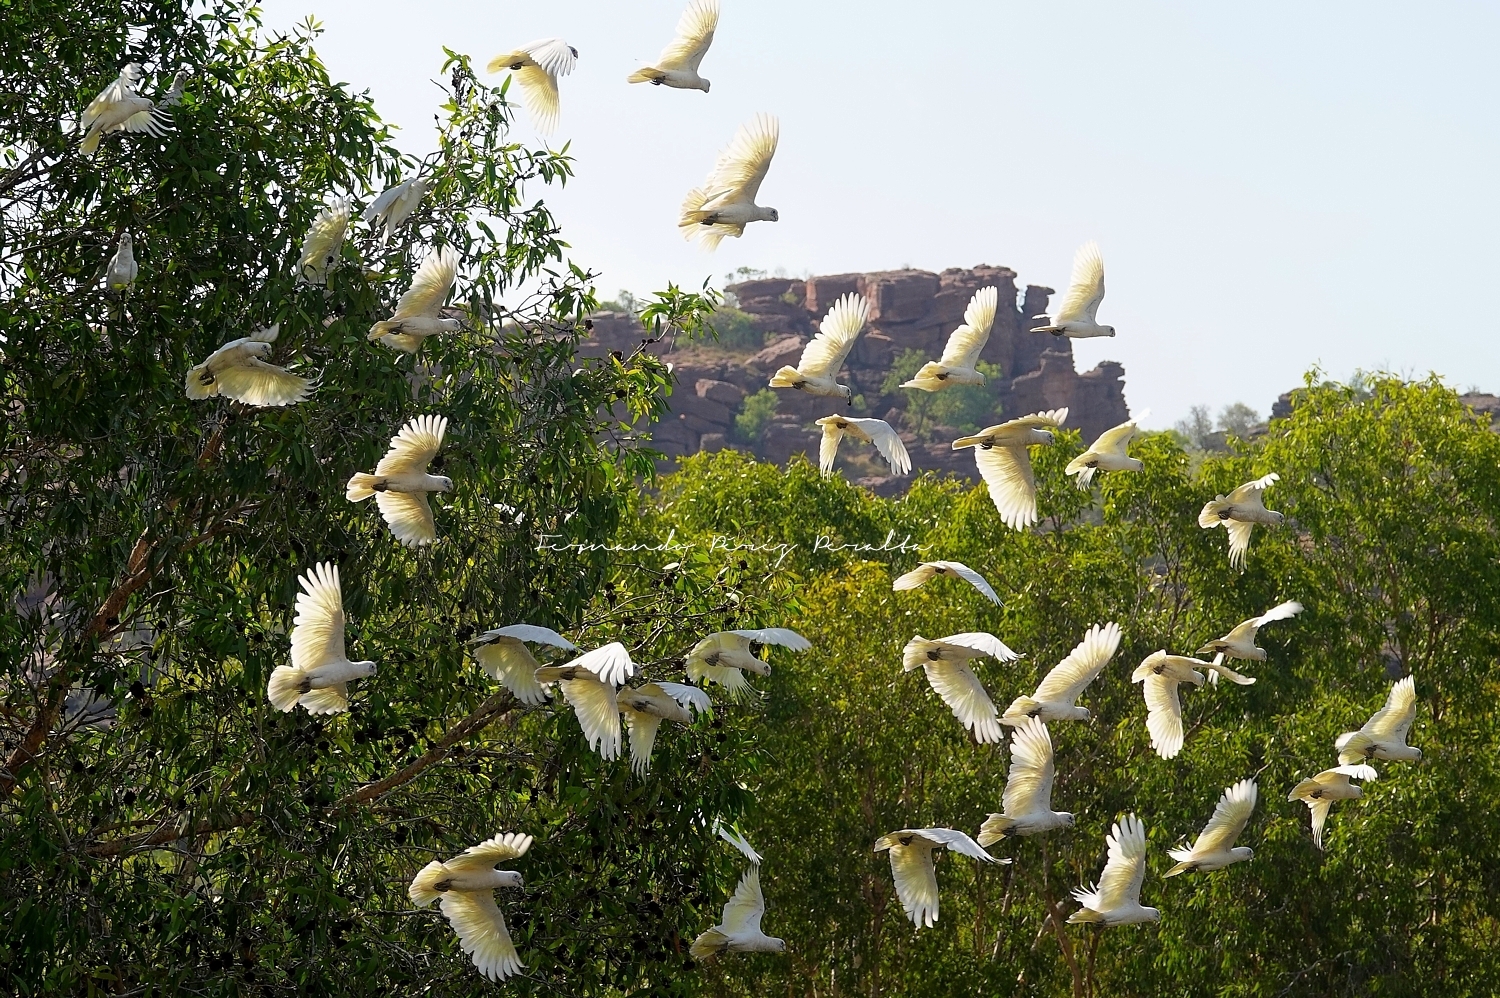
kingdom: Animalia
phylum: Chordata
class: Aves
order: Psittaciformes
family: Psittacidae
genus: Cacatua
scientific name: Cacatua sanguinea
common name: Little corella
